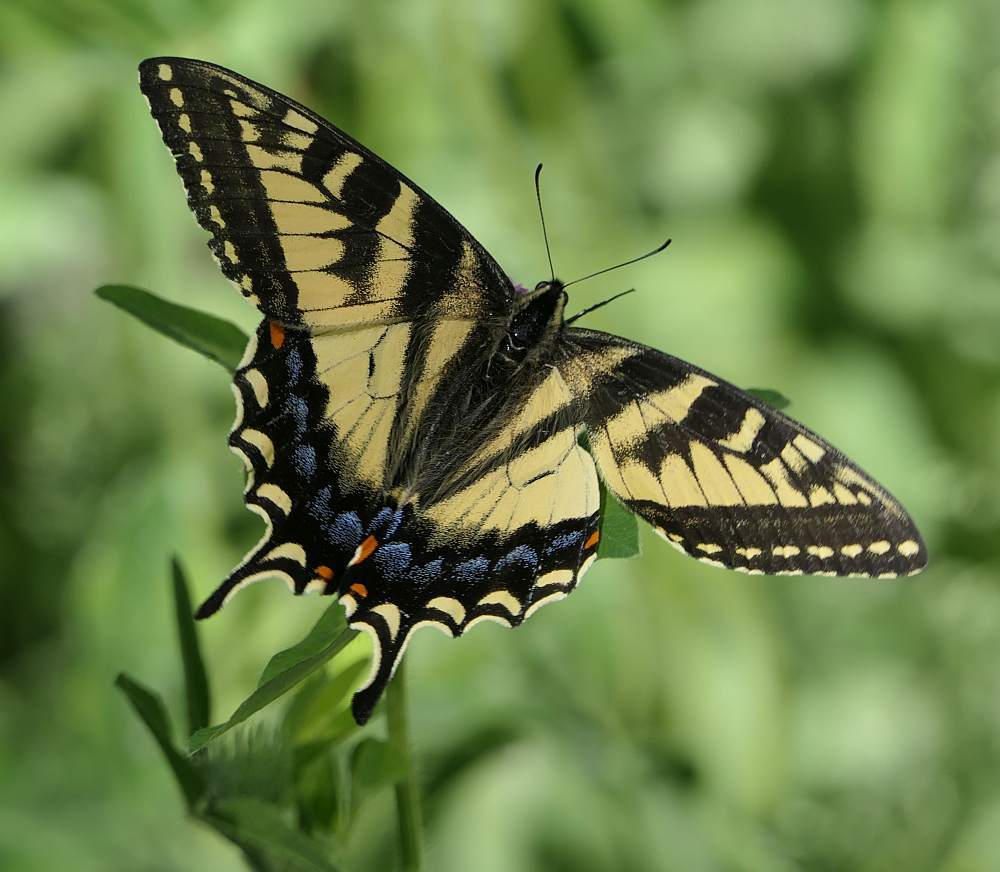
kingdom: Animalia
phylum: Arthropoda
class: Insecta
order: Lepidoptera
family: Papilionidae
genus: Papilio
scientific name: Papilio canadensis
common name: Canadian tiger swallowtail
